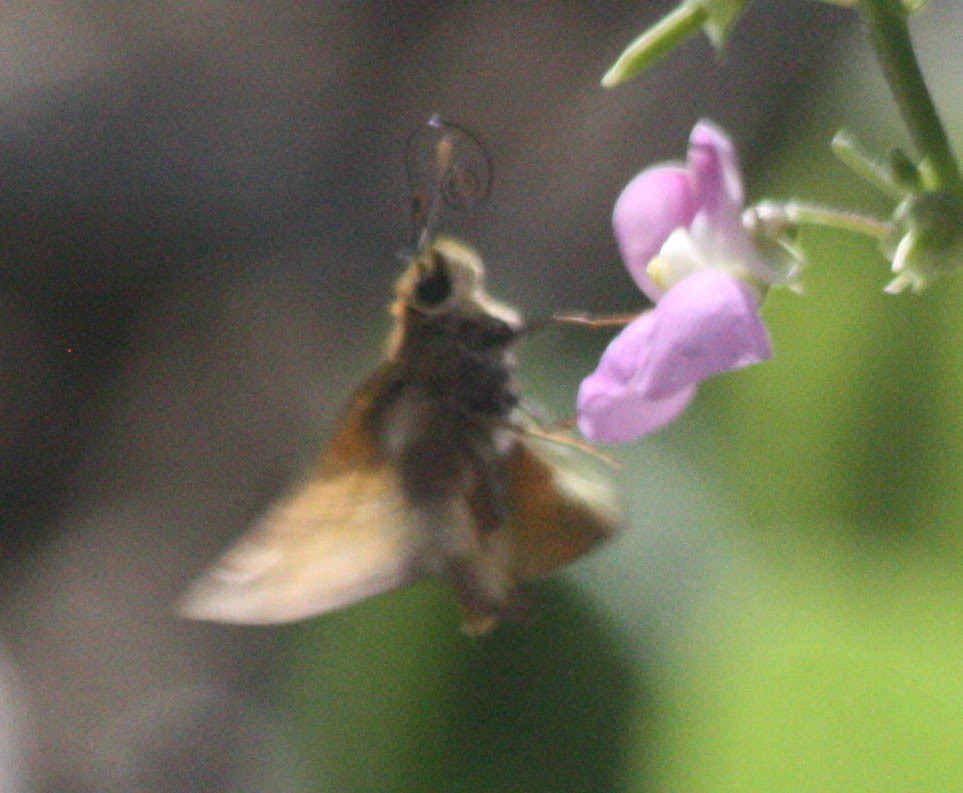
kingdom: Animalia
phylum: Arthropoda
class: Insecta
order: Lepidoptera
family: Hesperiidae
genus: Lon
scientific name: Lon taxiles
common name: Taxiles skipper
